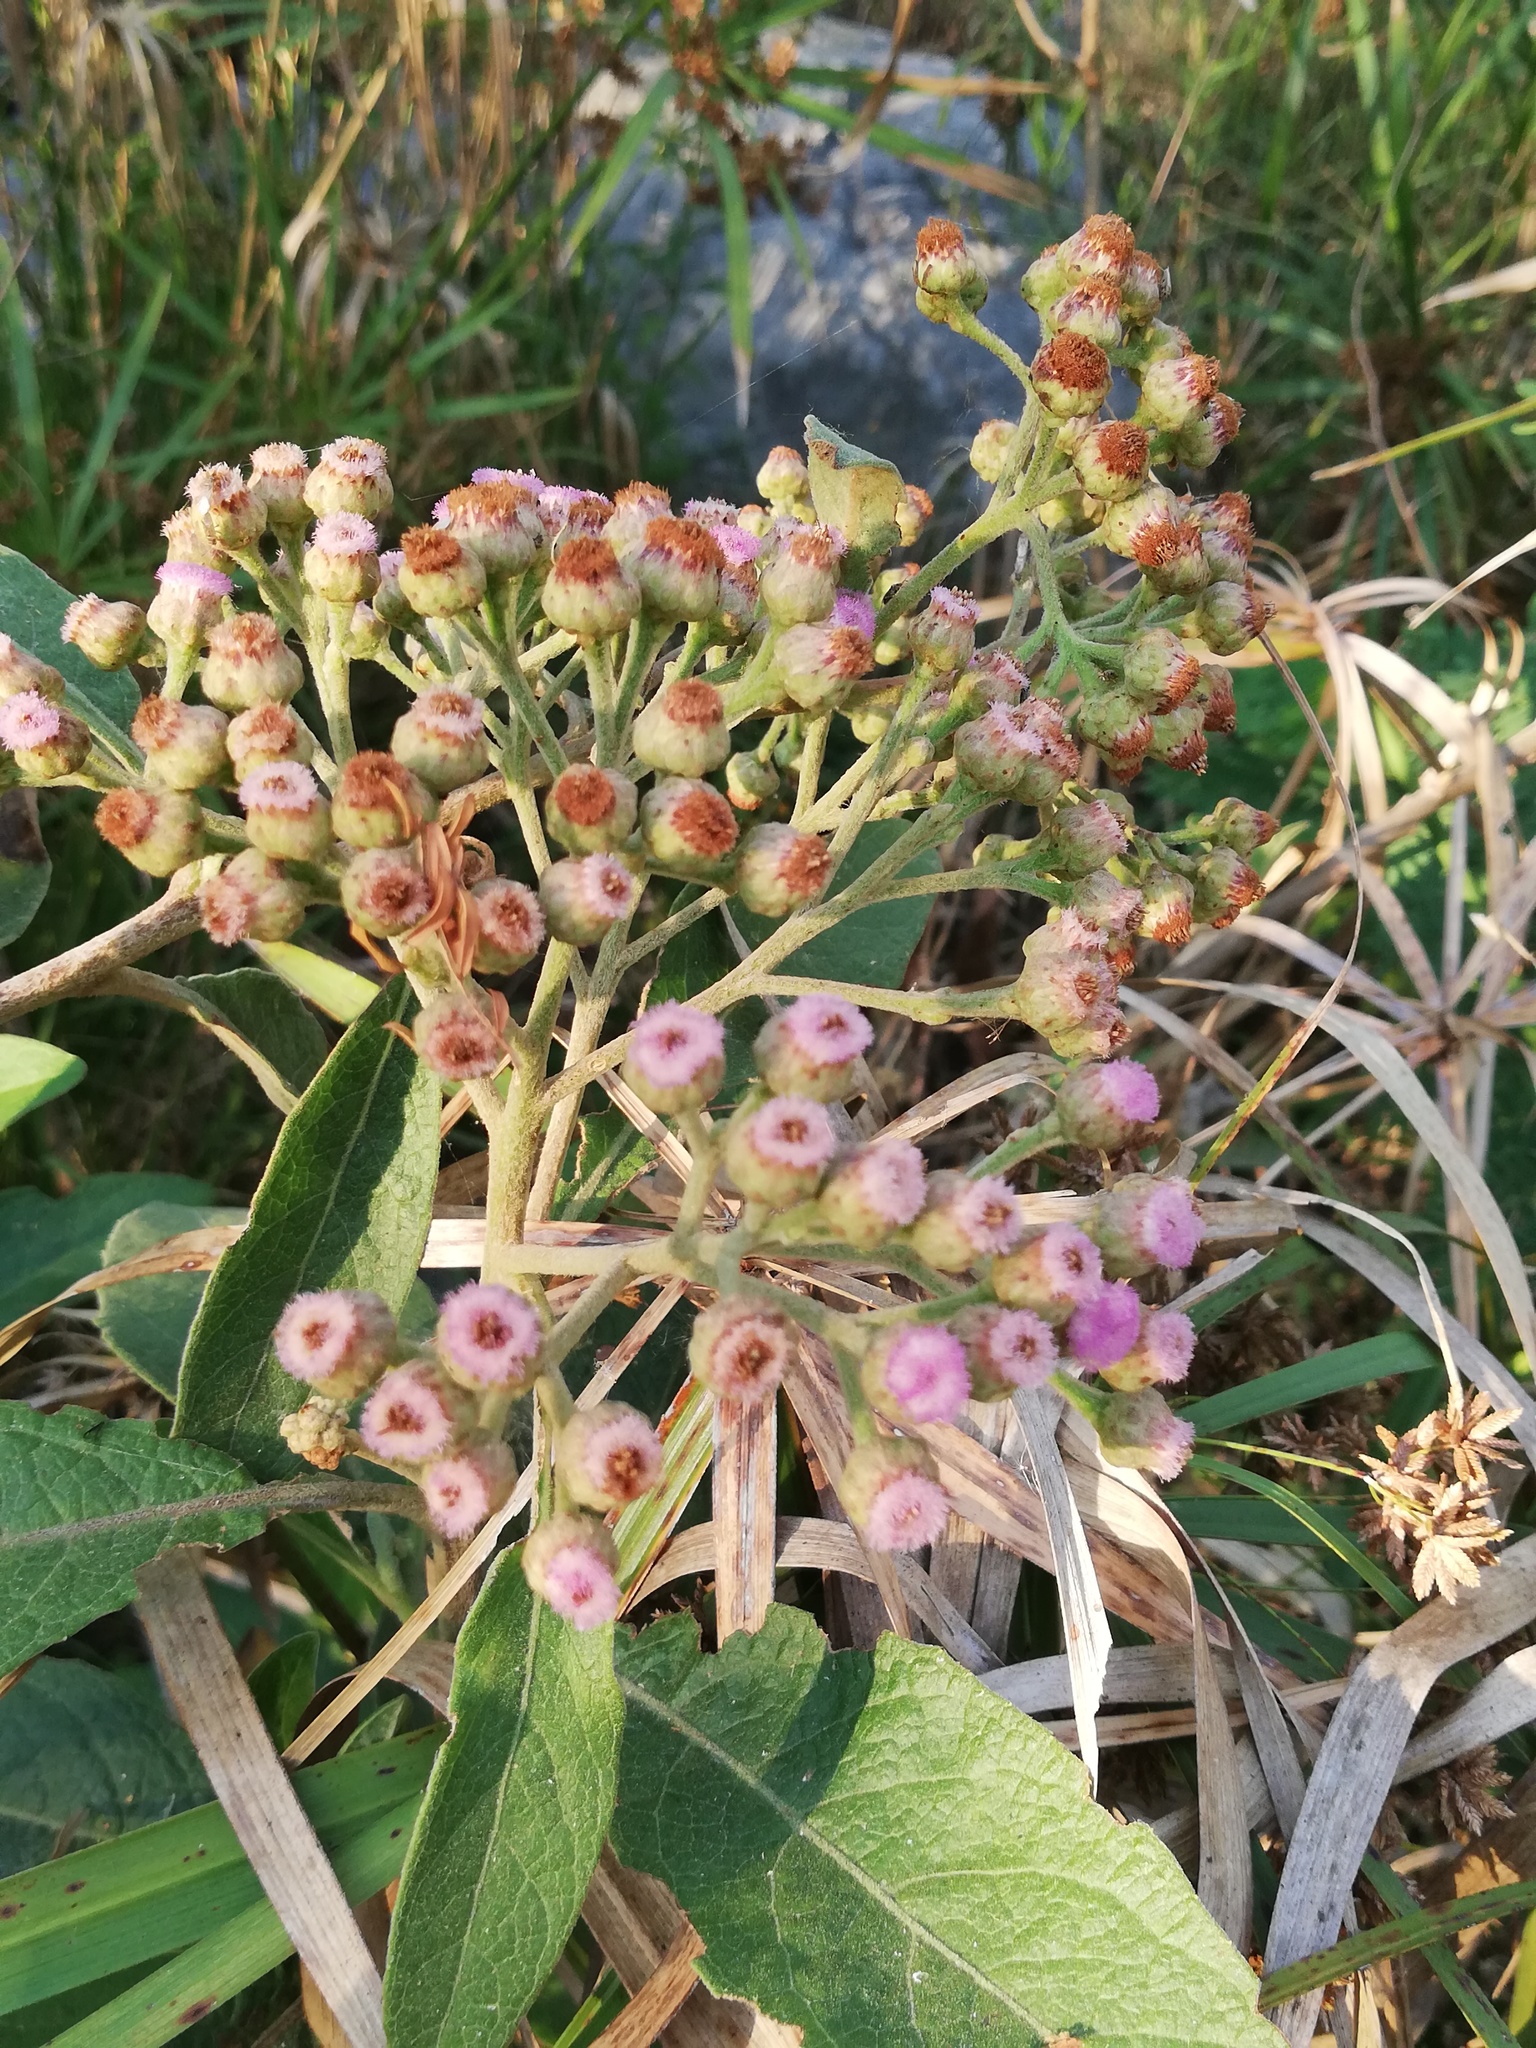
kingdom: Plantae
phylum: Tracheophyta
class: Magnoliopsida
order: Asterales
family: Asteraceae
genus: Pluchea
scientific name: Pluchea carolinensis
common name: Marsh fleabane
